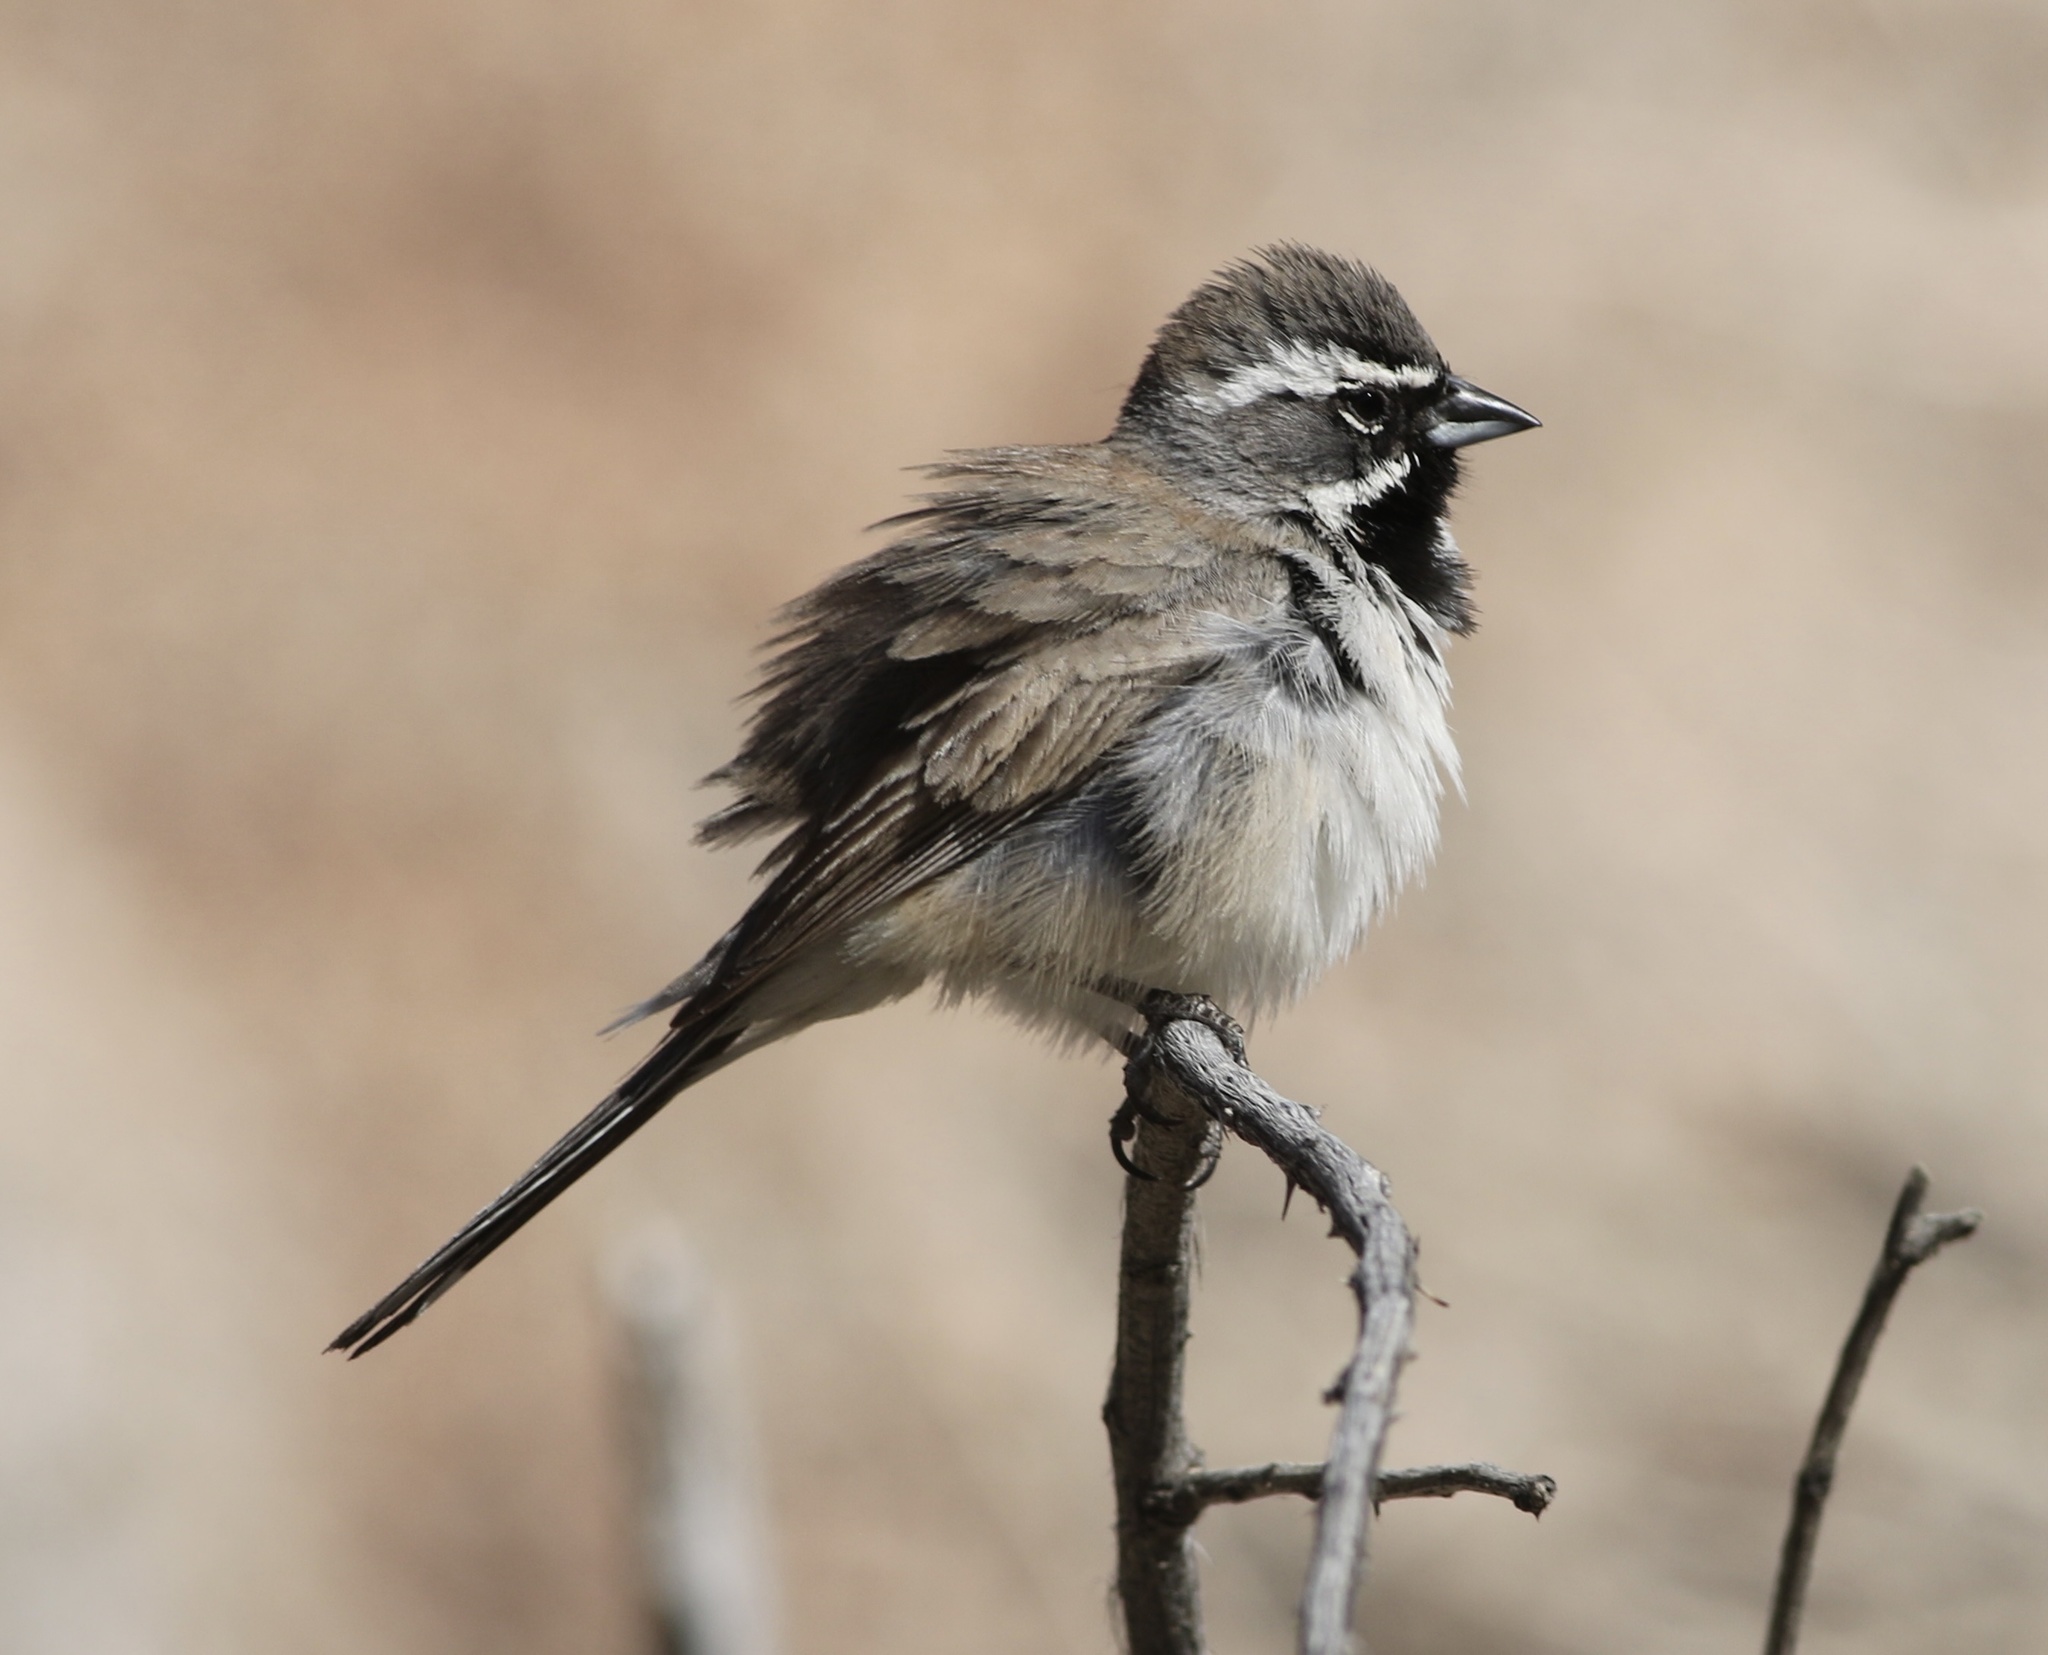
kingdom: Animalia
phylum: Chordata
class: Aves
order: Passeriformes
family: Passerellidae
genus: Amphispiza
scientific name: Amphispiza bilineata
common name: Black-throated sparrow
